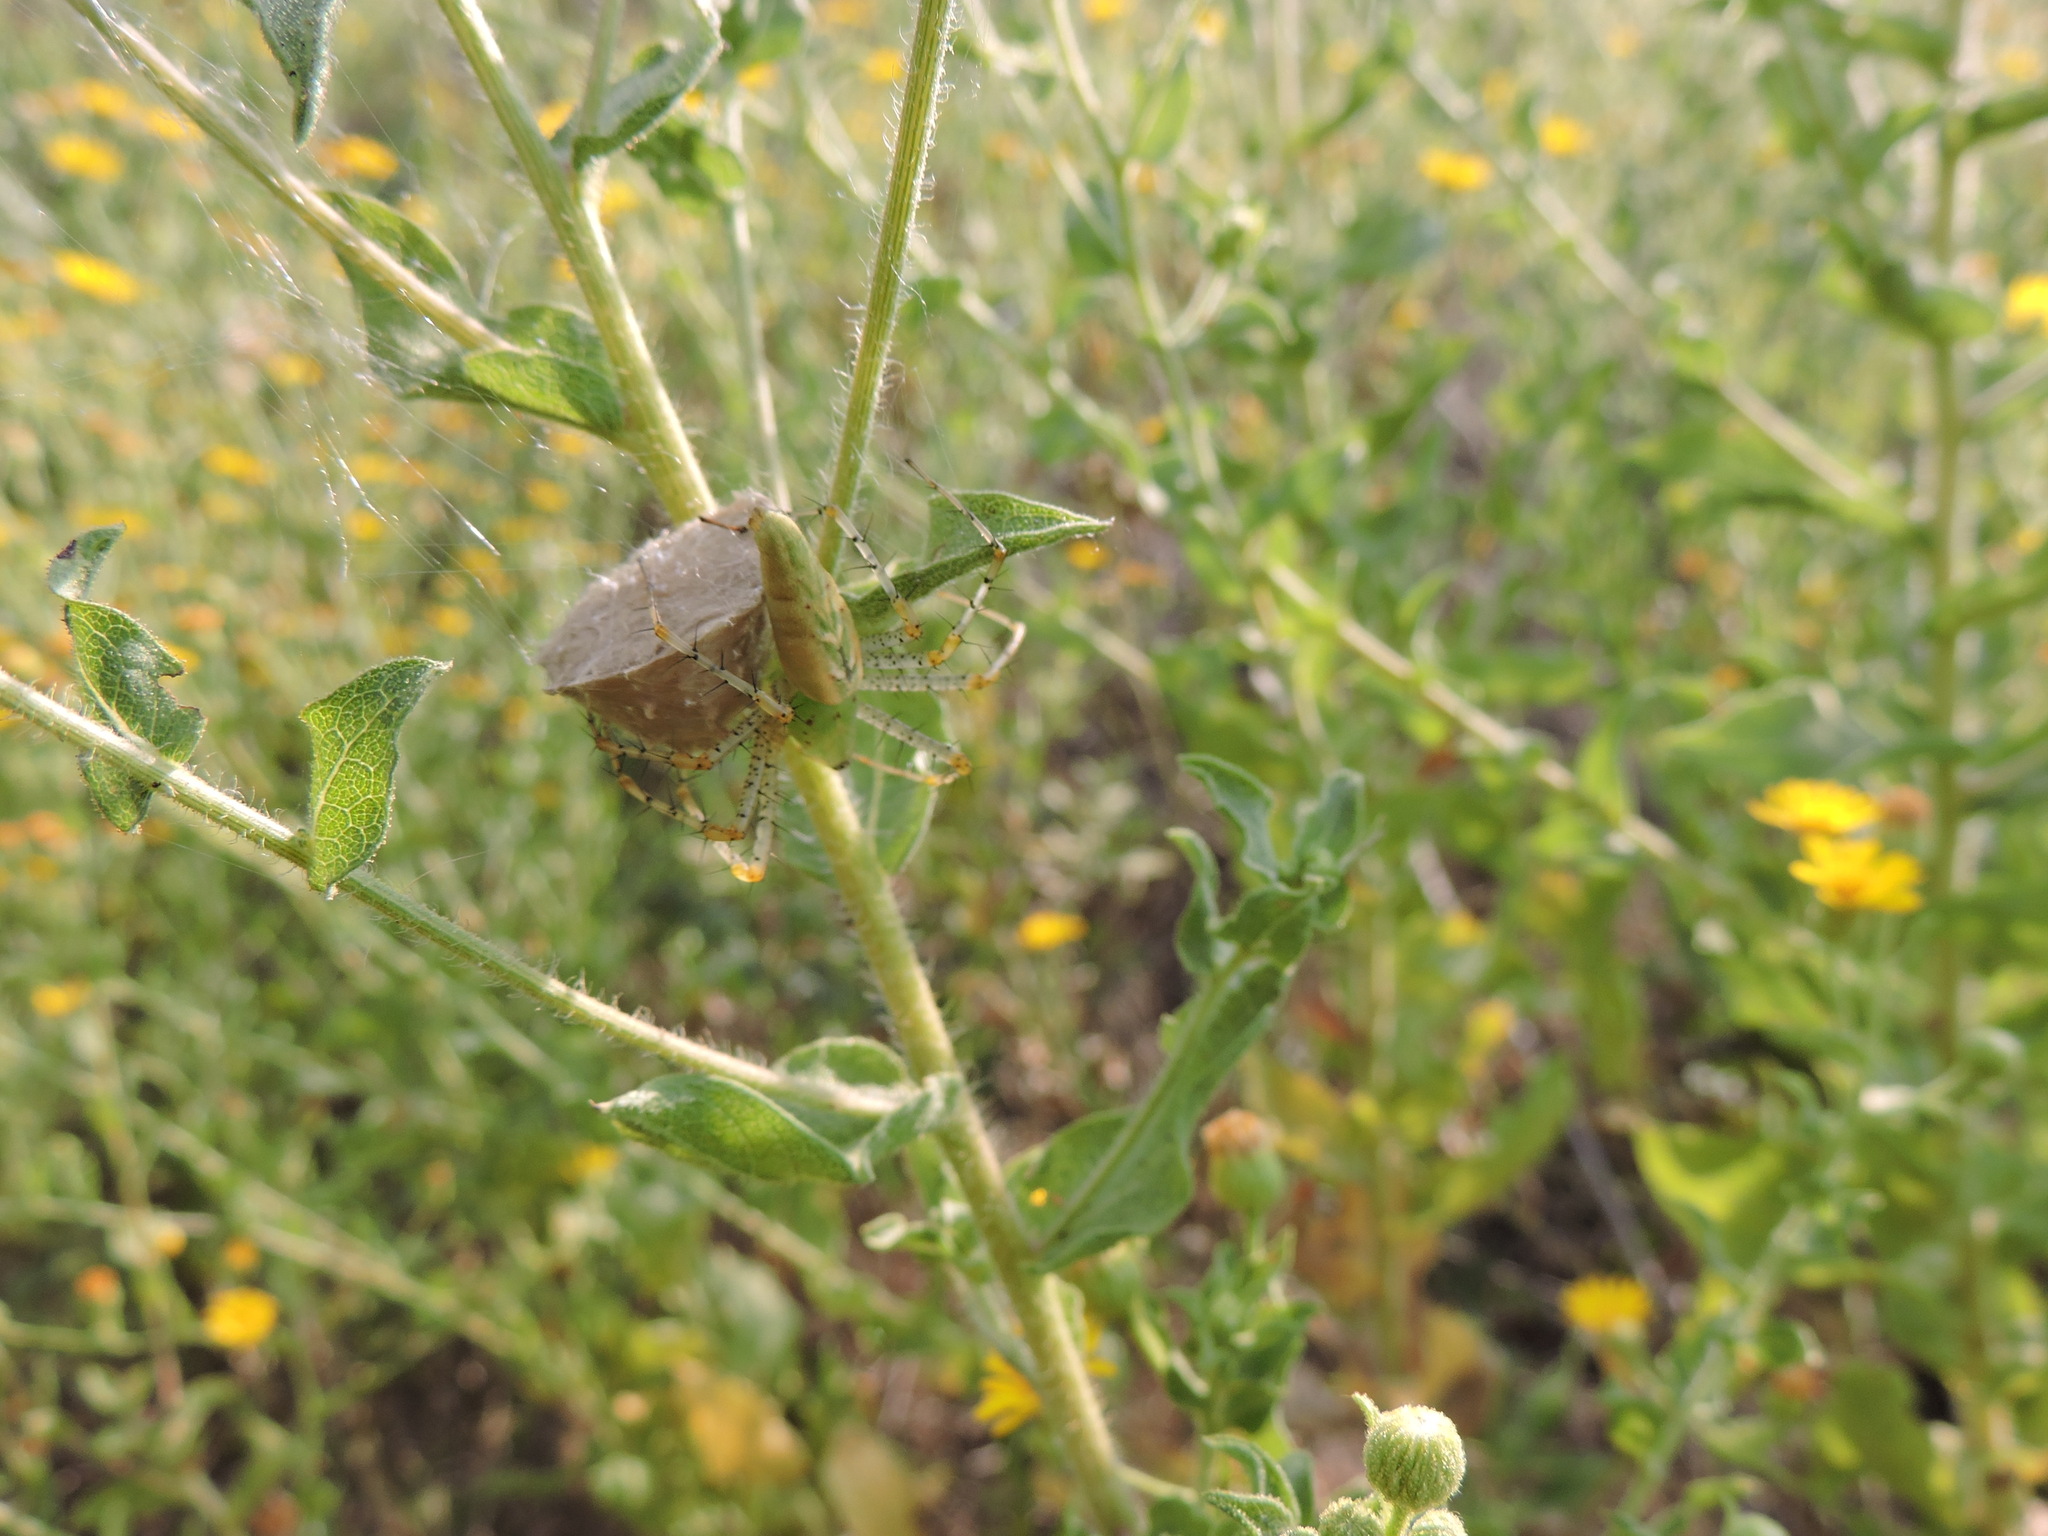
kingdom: Animalia
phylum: Arthropoda
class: Arachnida
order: Araneae
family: Oxyopidae
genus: Peucetia
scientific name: Peucetia viridans
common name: Lynx spiders
